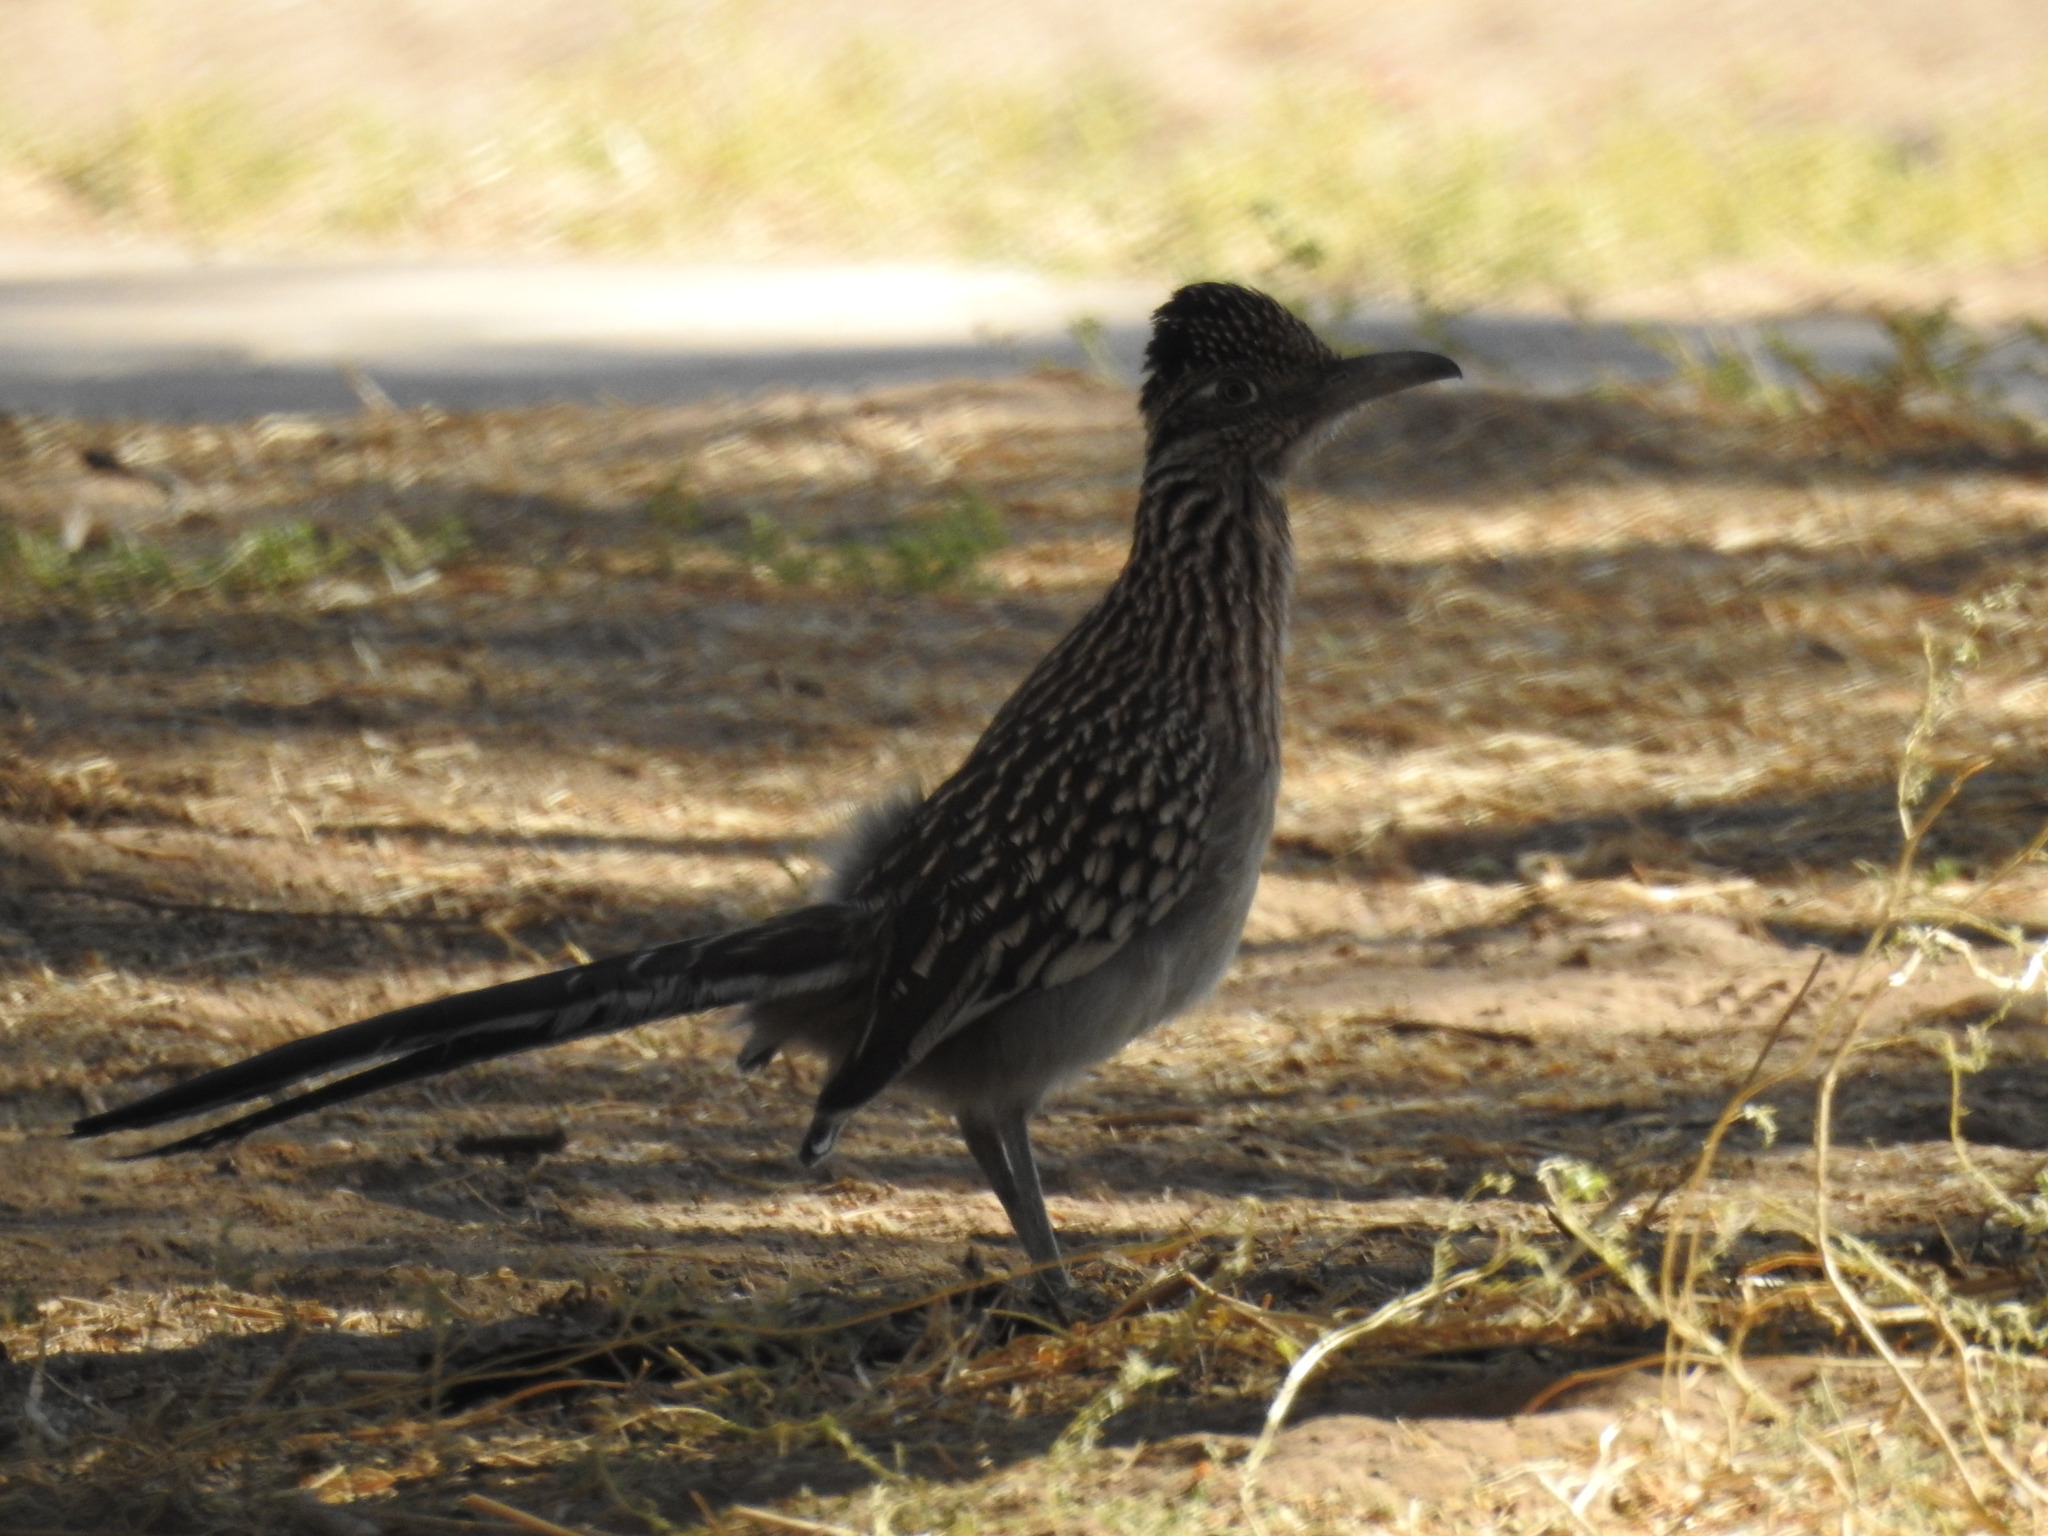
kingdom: Animalia
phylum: Chordata
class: Aves
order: Cuculiformes
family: Cuculidae
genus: Geococcyx
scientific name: Geococcyx californianus
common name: Greater roadrunner
